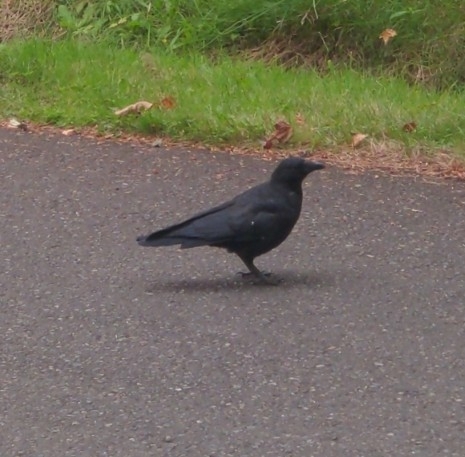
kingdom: Animalia
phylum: Chordata
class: Aves
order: Passeriformes
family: Corvidae
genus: Corvus
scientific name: Corvus brachyrhynchos
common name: American crow
